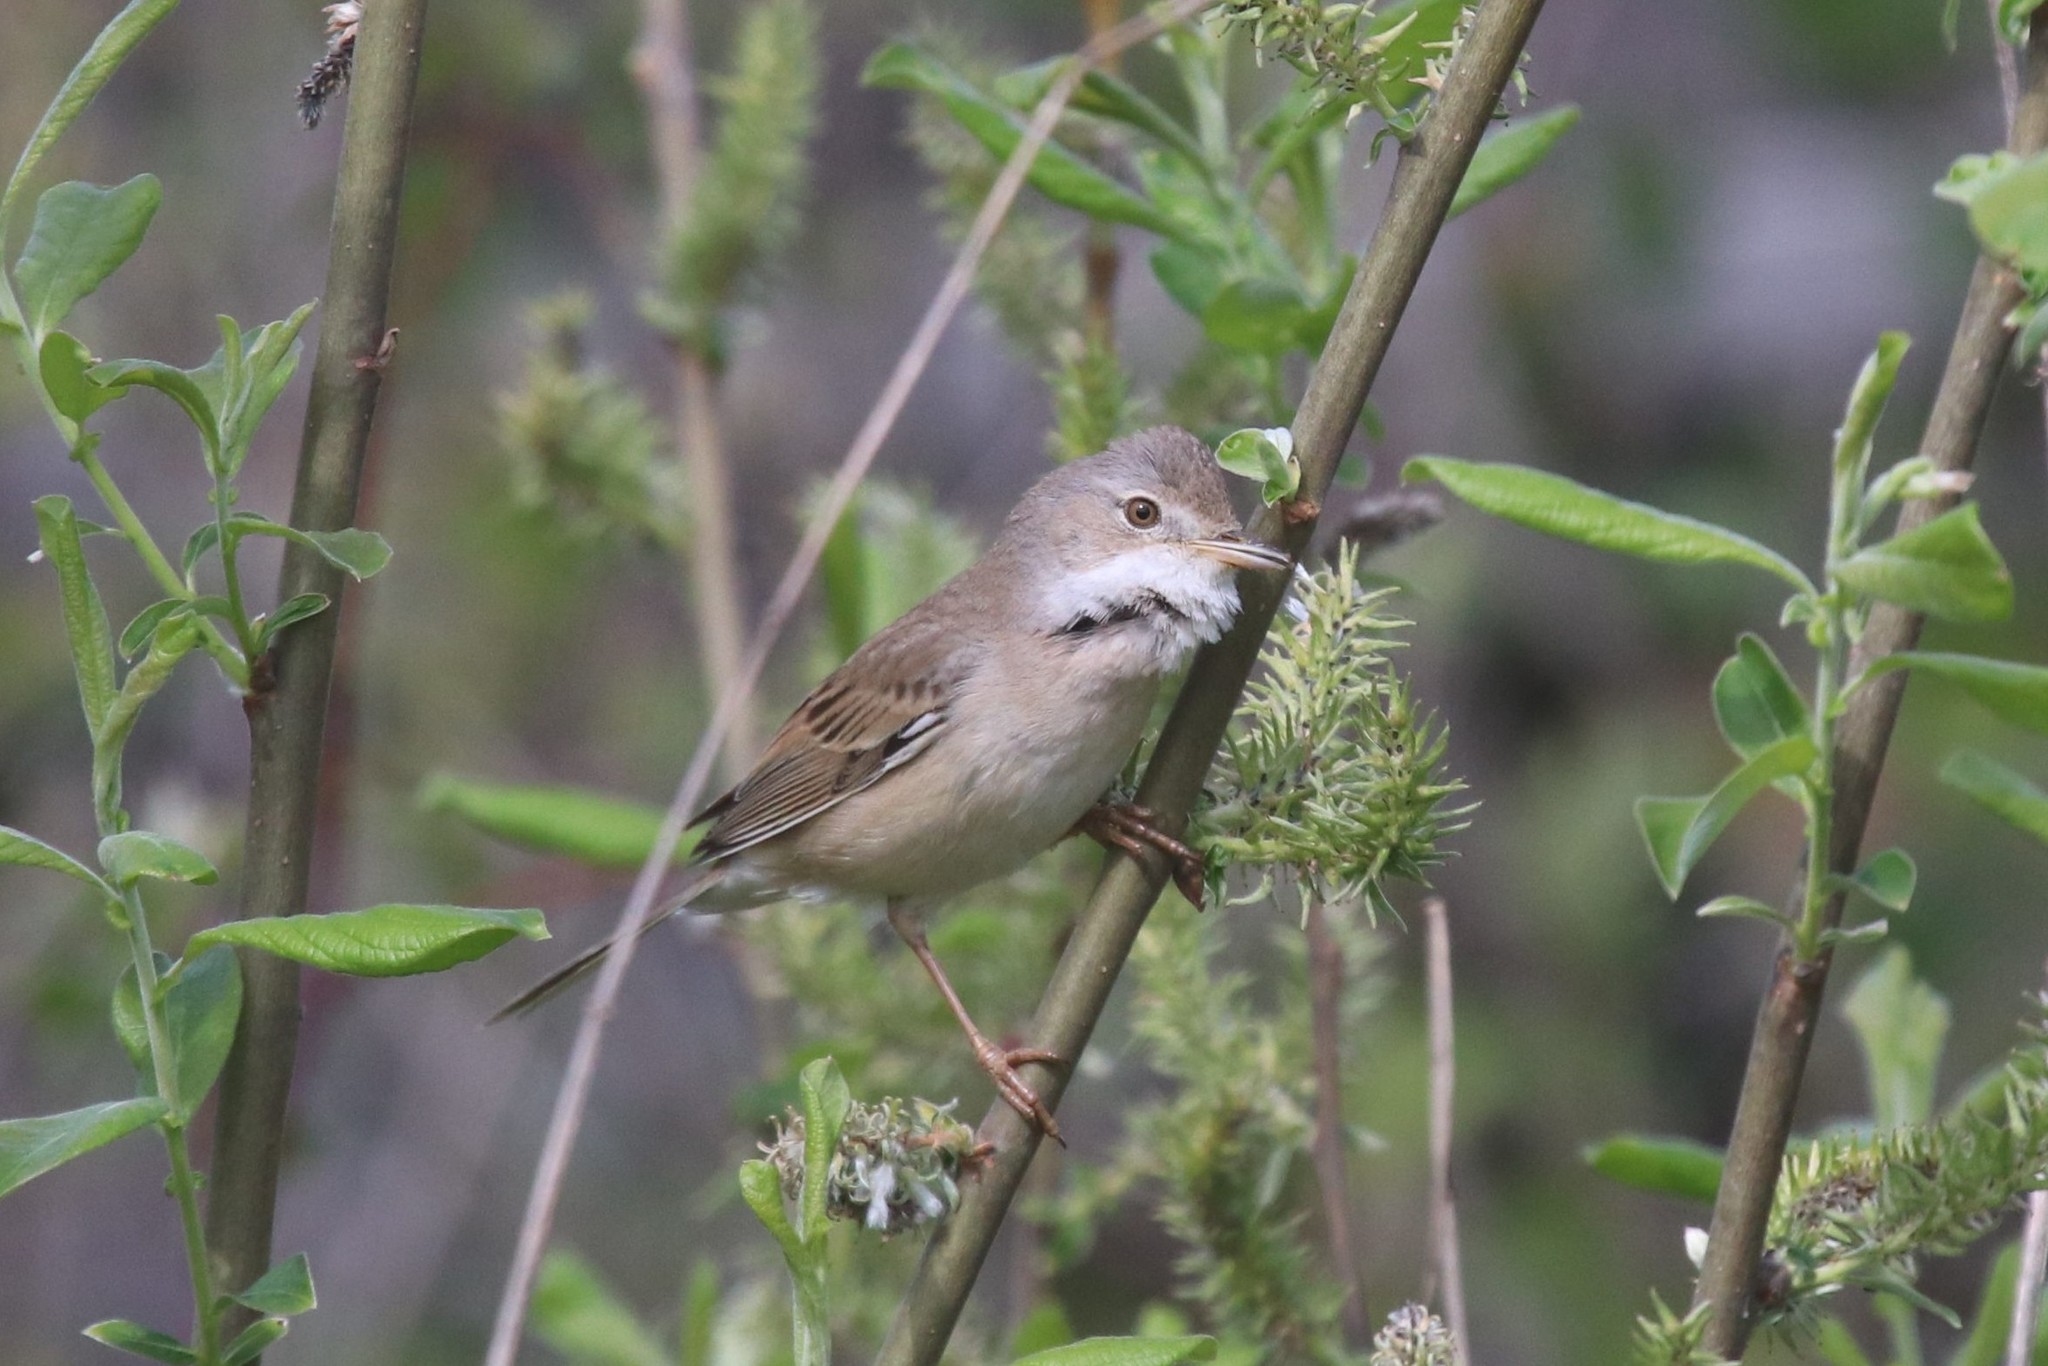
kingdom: Animalia
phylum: Chordata
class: Aves
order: Passeriformes
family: Sylviidae
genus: Sylvia
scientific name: Sylvia communis
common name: Common whitethroat
